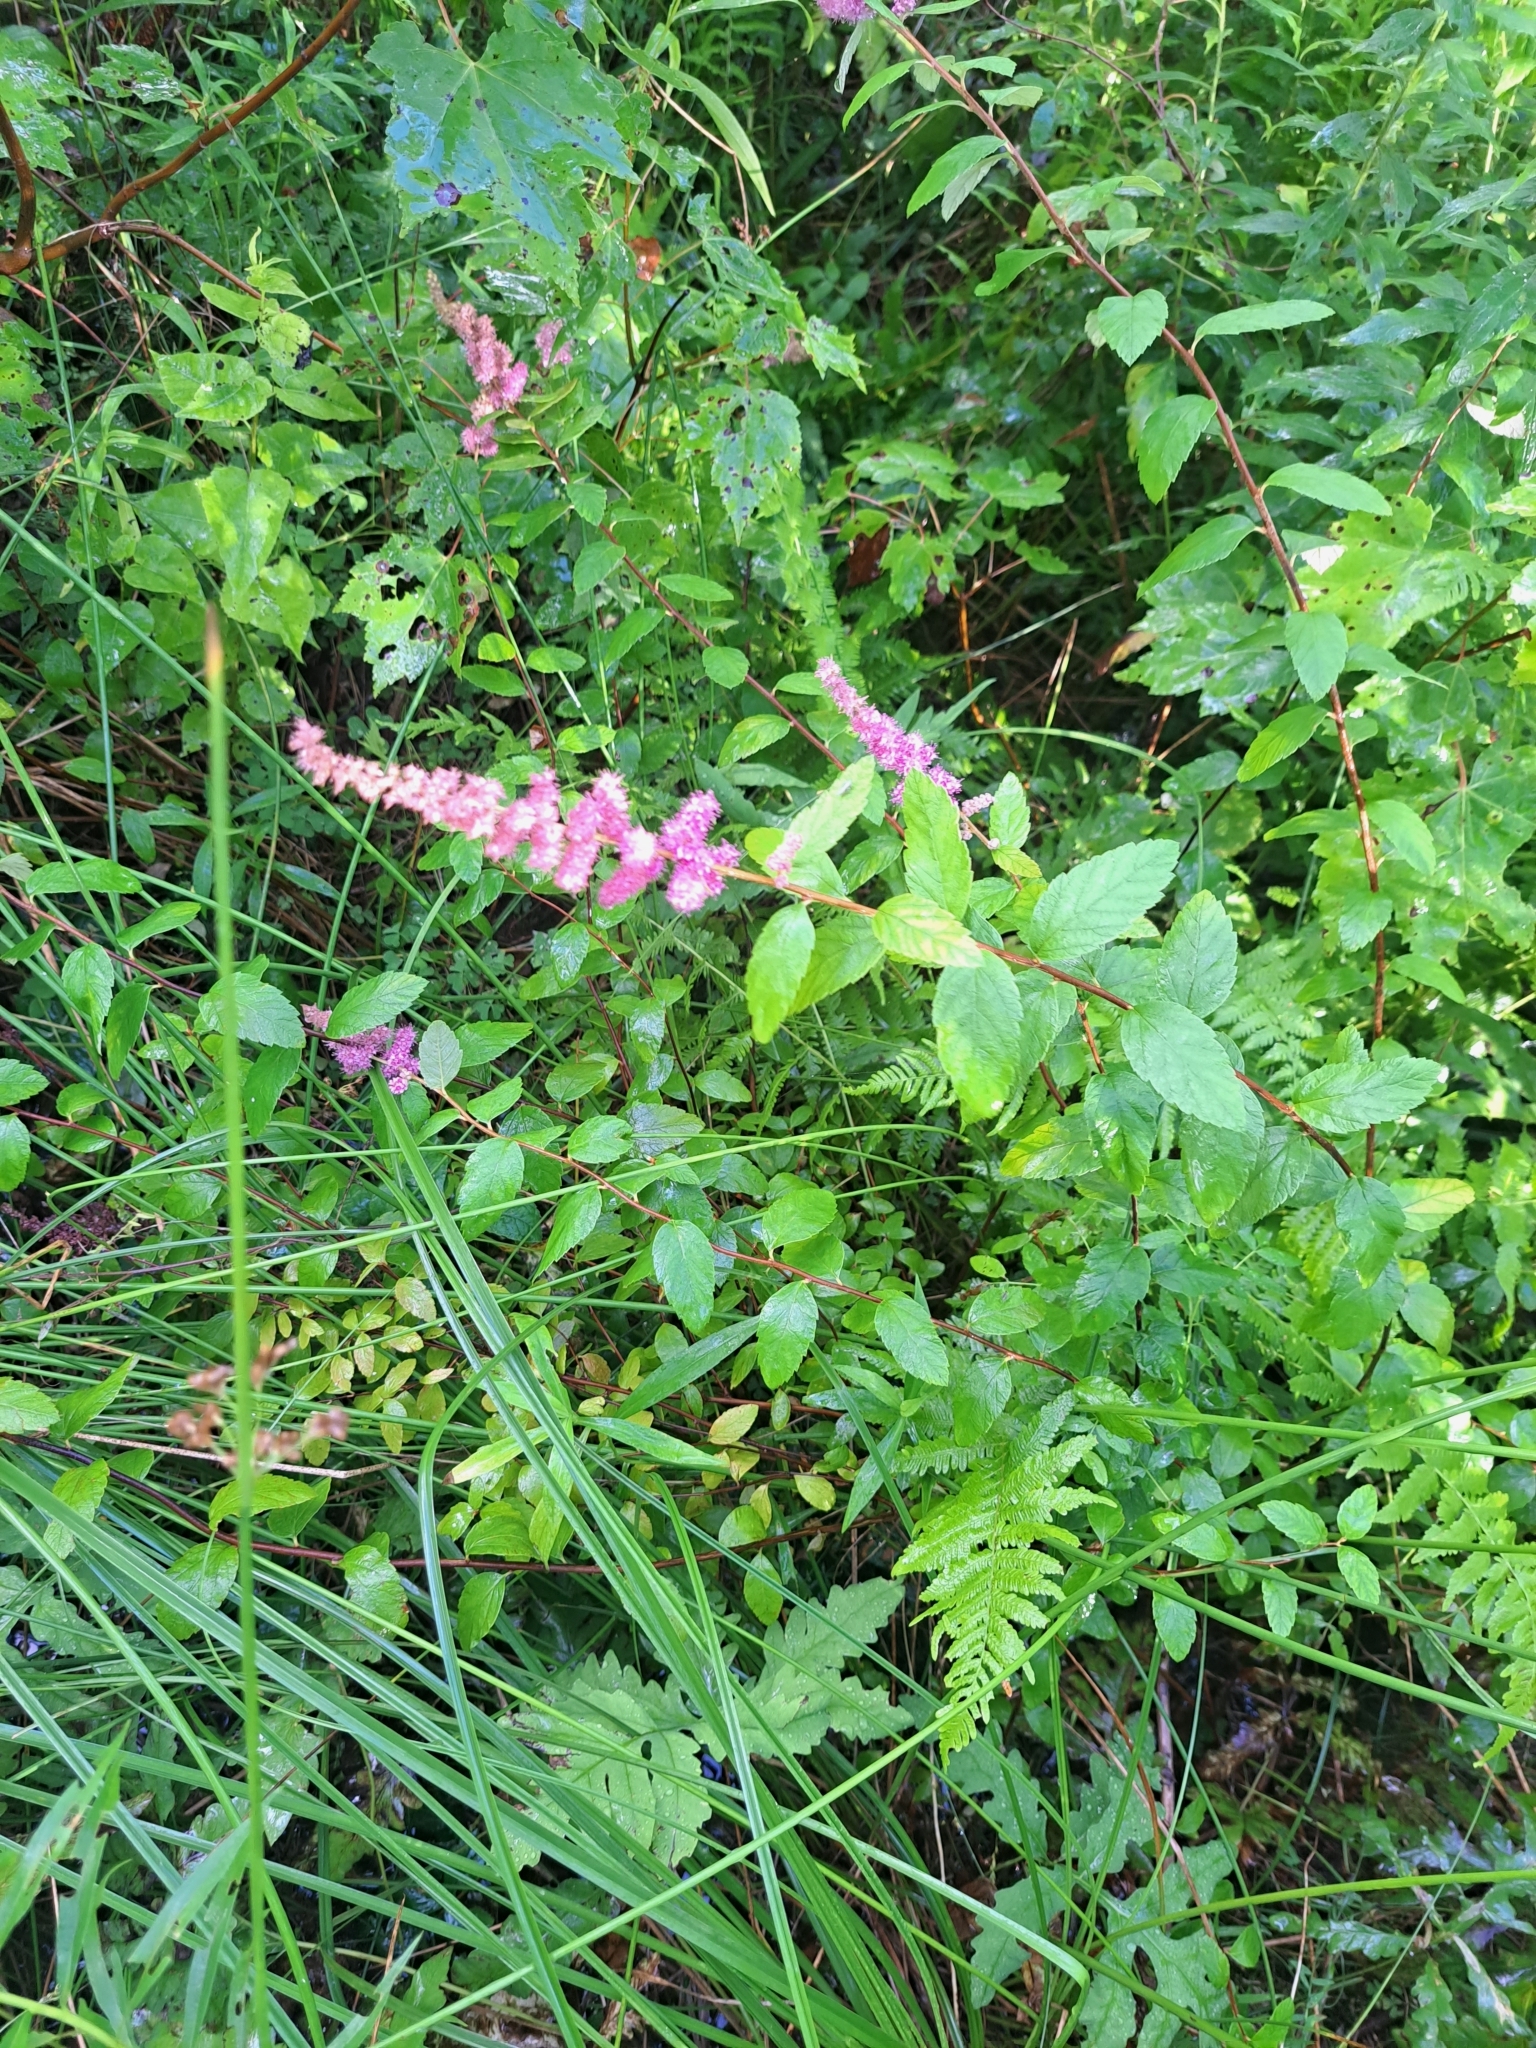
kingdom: Plantae
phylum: Tracheophyta
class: Magnoliopsida
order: Rosales
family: Rosaceae
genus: Spiraea
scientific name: Spiraea tomentosa
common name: Hardhack
